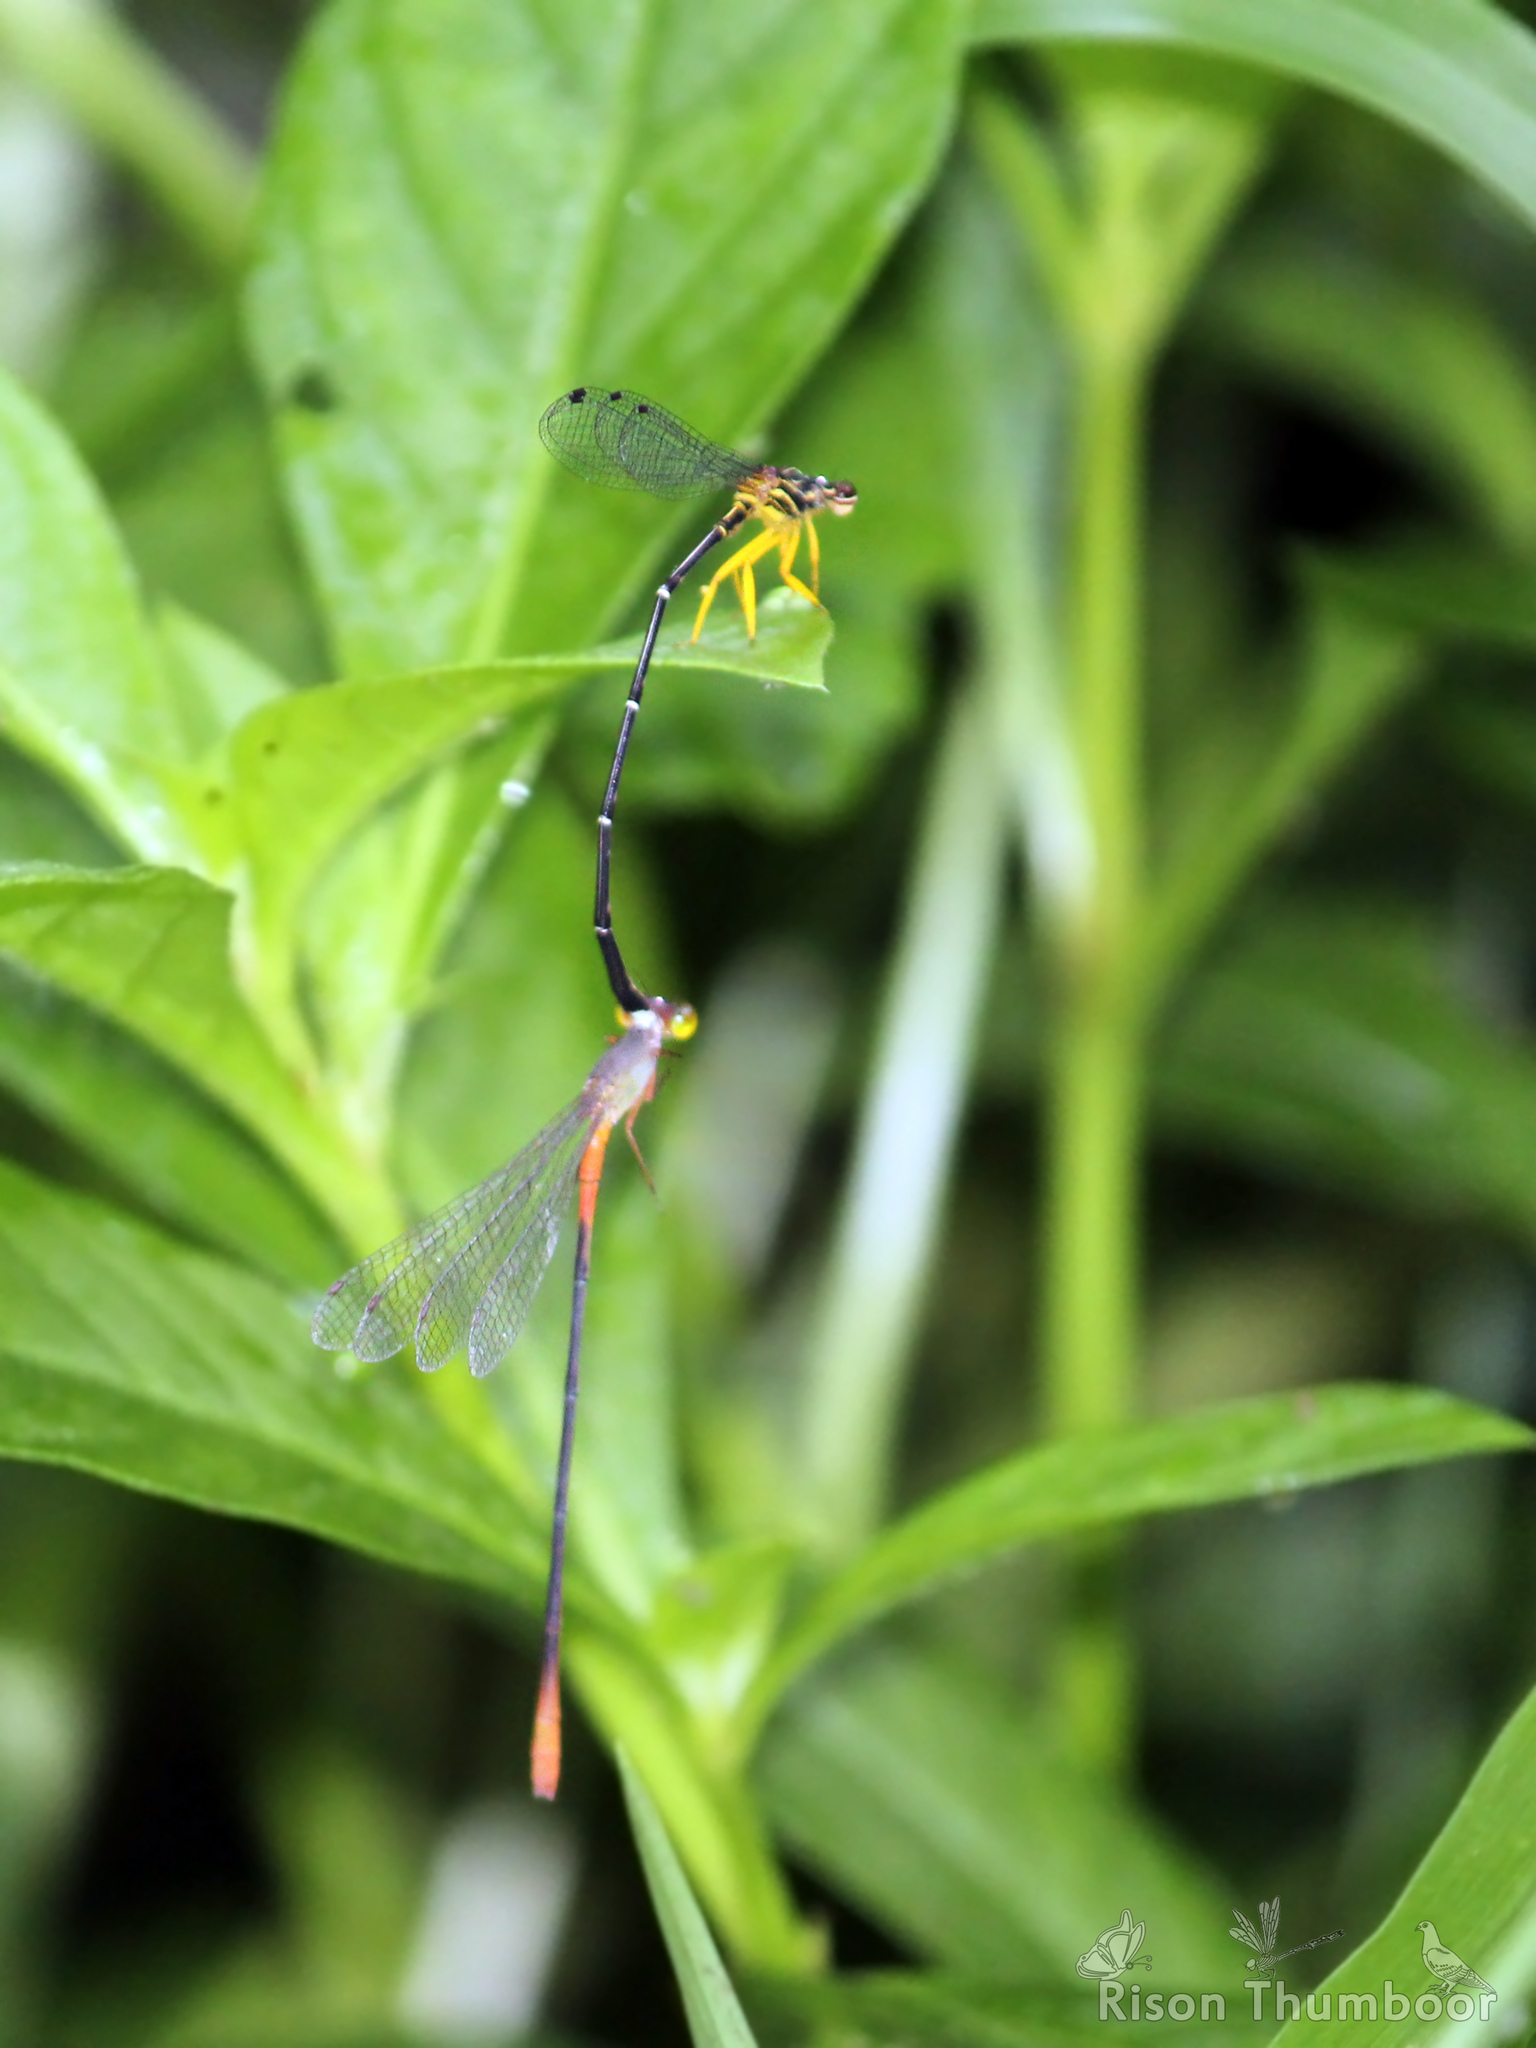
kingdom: Animalia
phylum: Arthropoda
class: Insecta
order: Odonata
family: Coenagrionidae
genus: Ceriagrion
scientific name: Ceriagrion cerinorubellum
